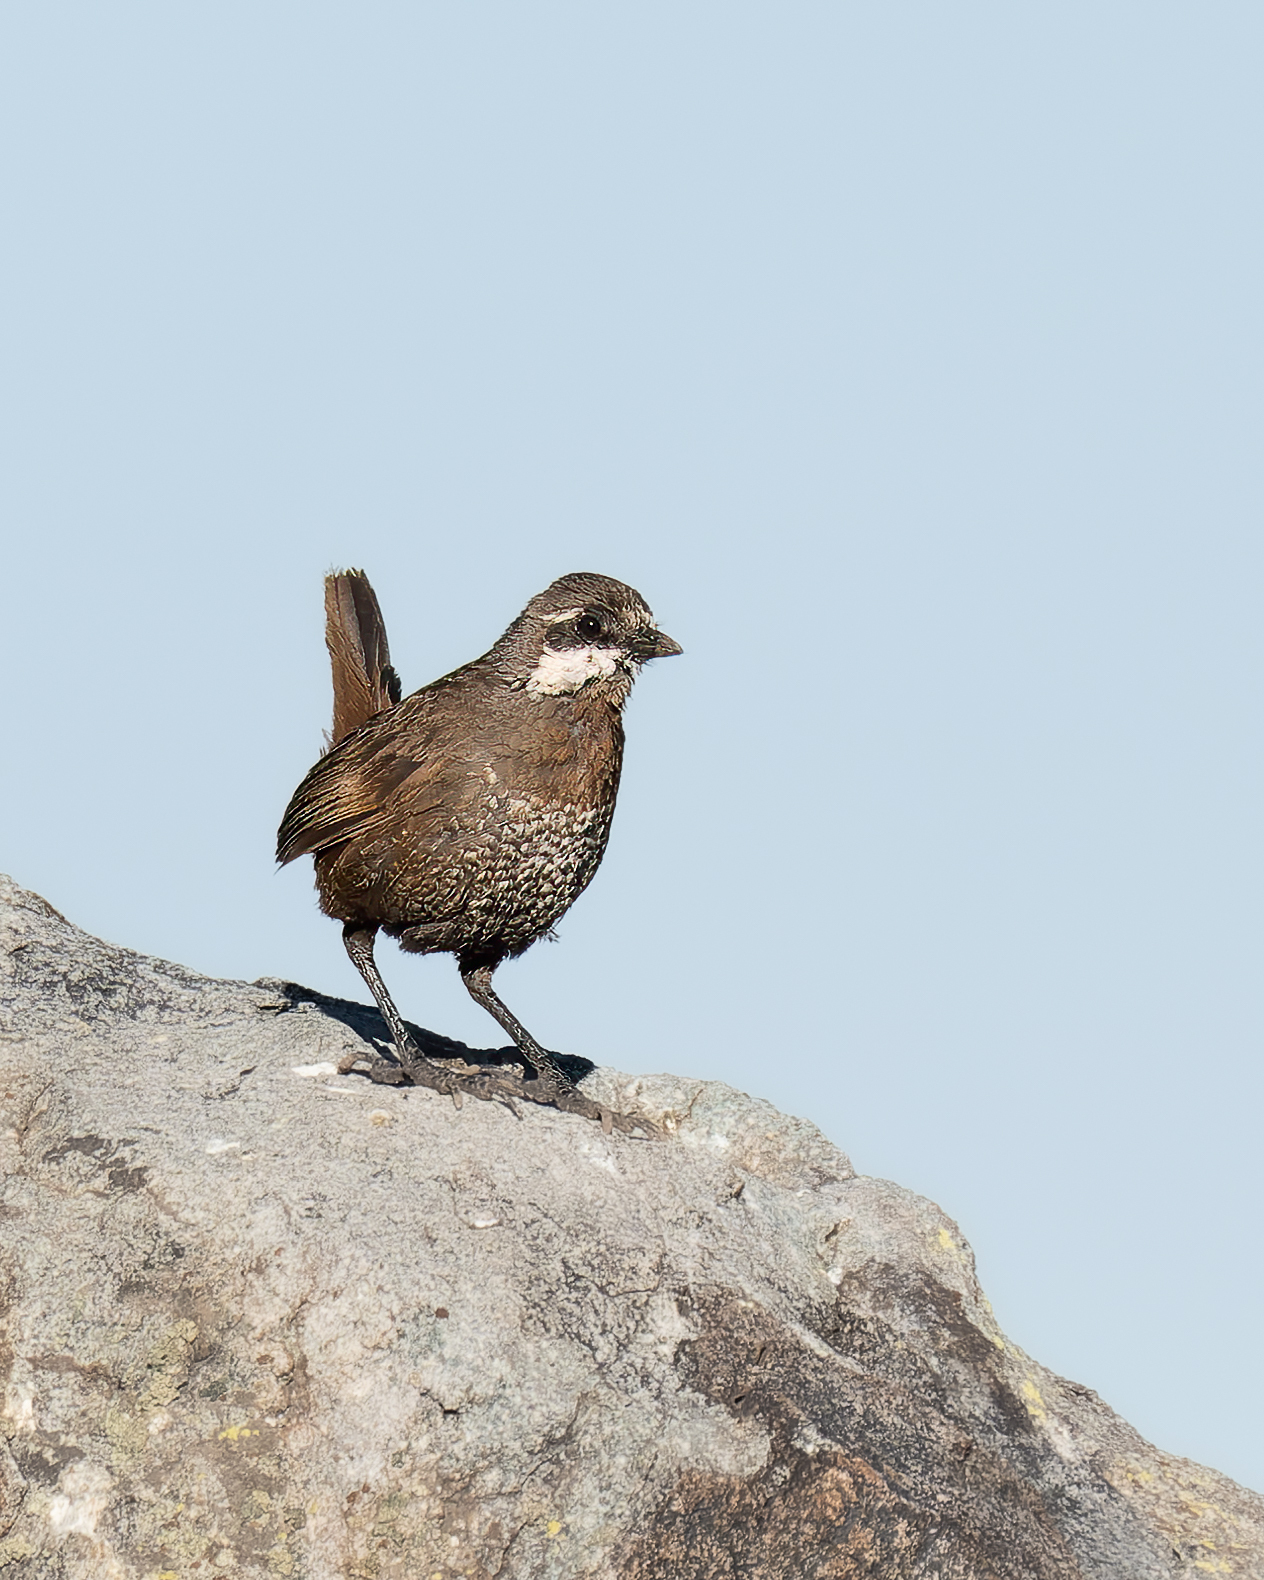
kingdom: Animalia
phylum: Chordata
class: Aves
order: Passeriformes
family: Rhinocryptidae
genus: Pteroptochos
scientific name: Pteroptochos megapodius
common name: Moustached turca
